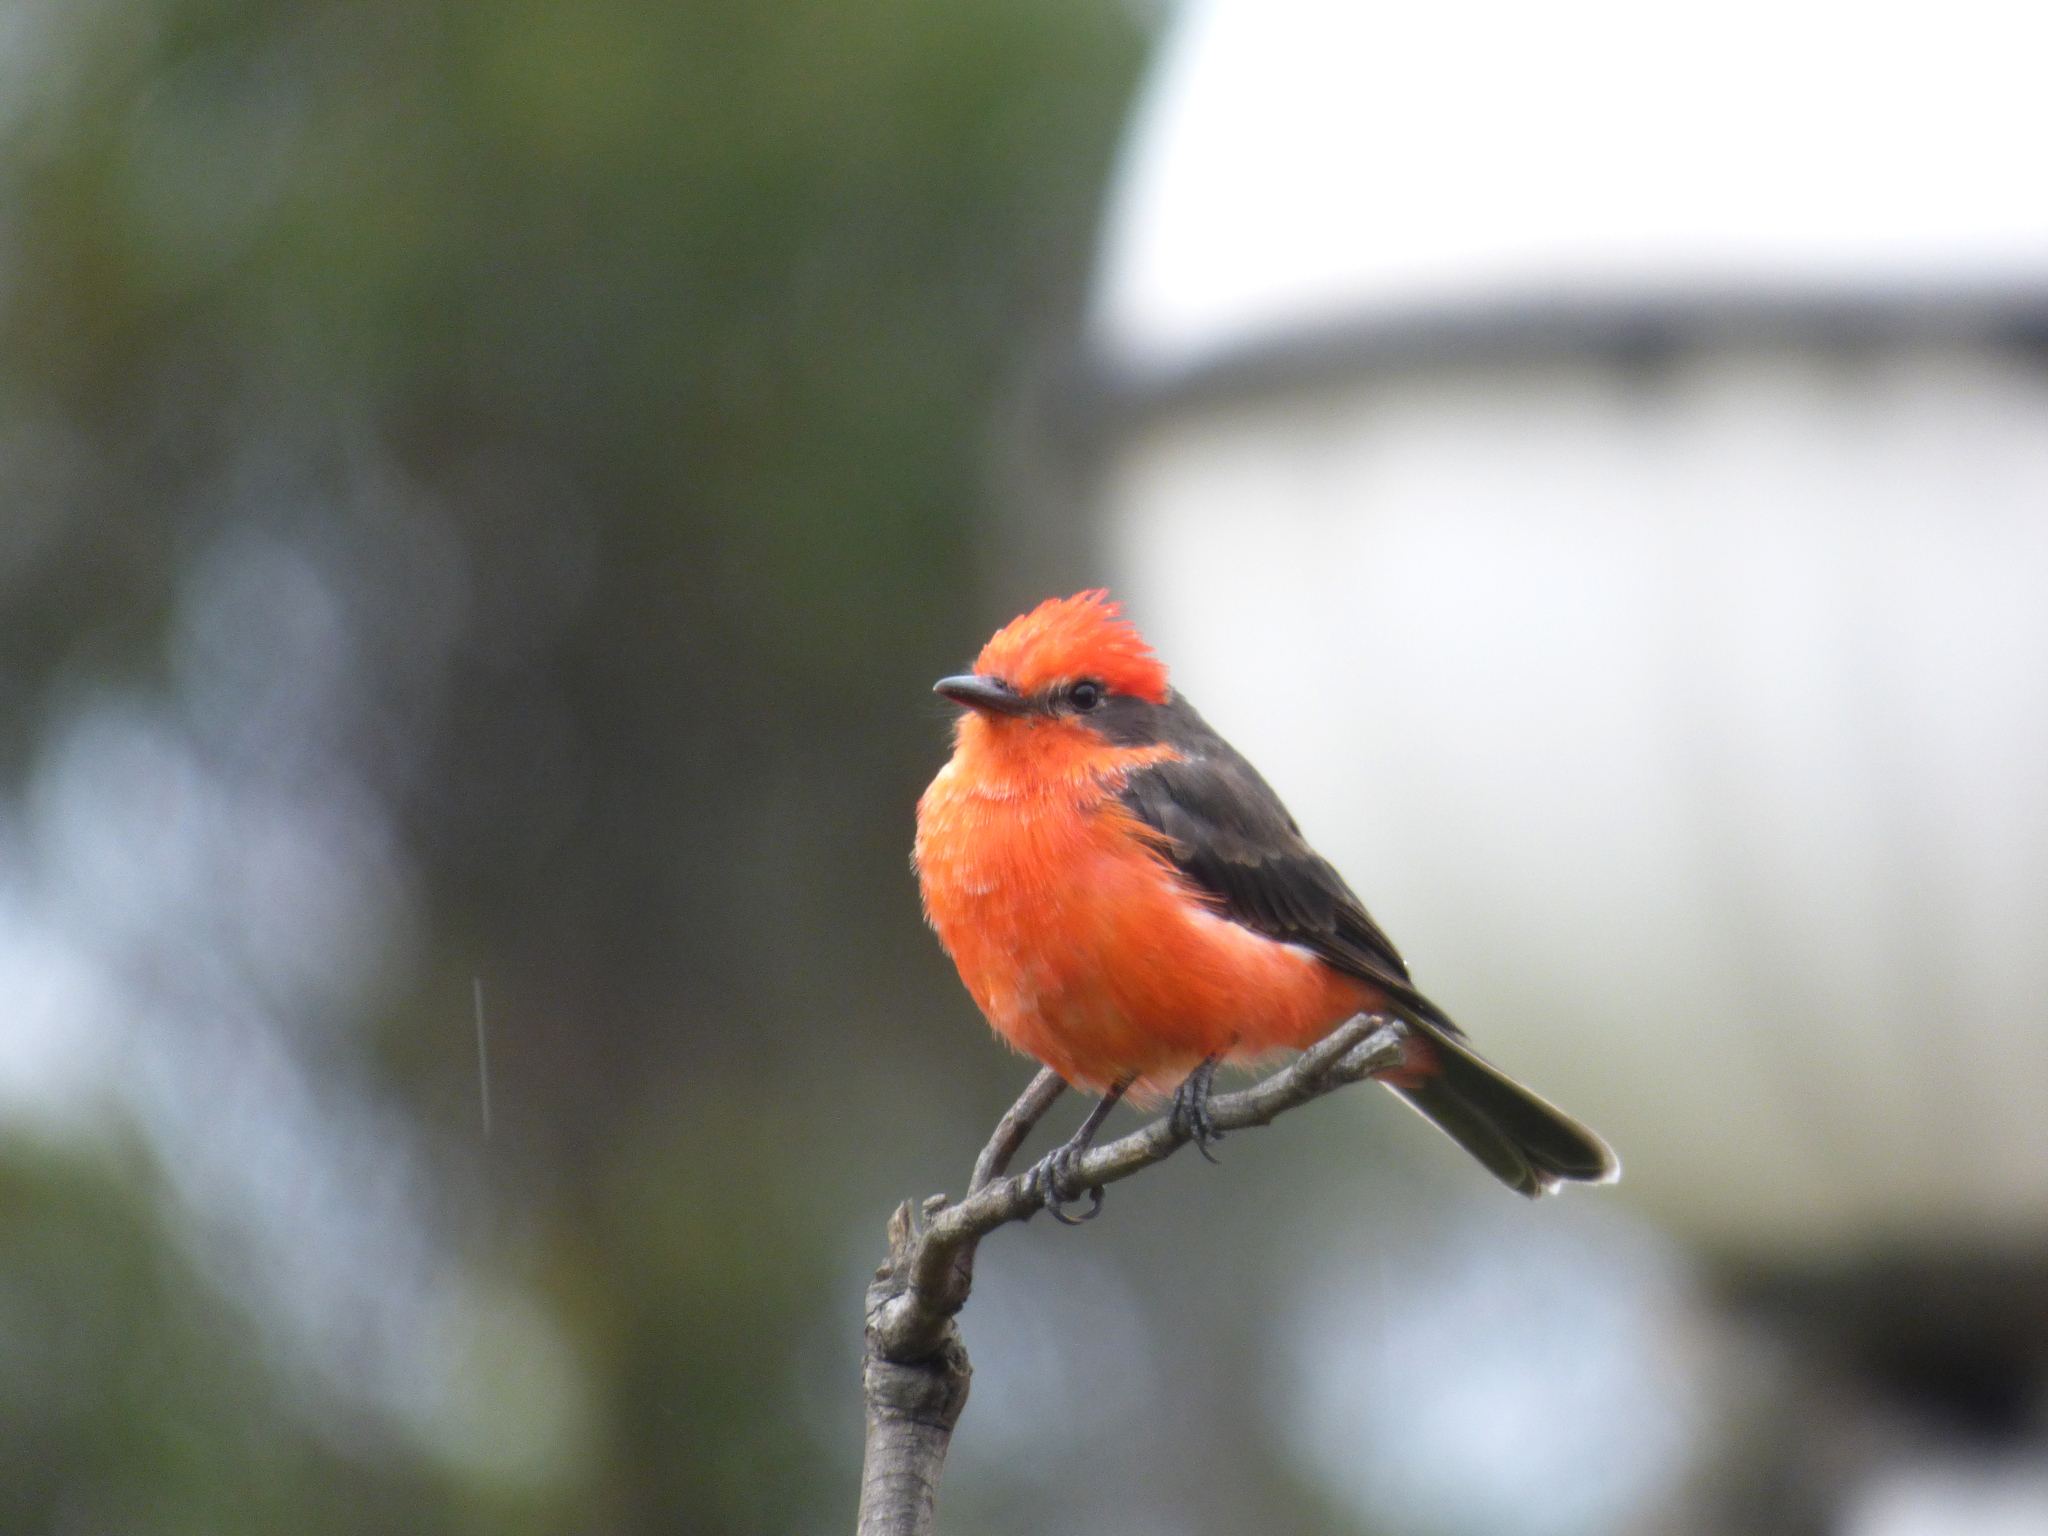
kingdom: Animalia
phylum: Chordata
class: Aves
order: Passeriformes
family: Tyrannidae
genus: Pyrocephalus
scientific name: Pyrocephalus rubinus
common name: Vermilion flycatcher
